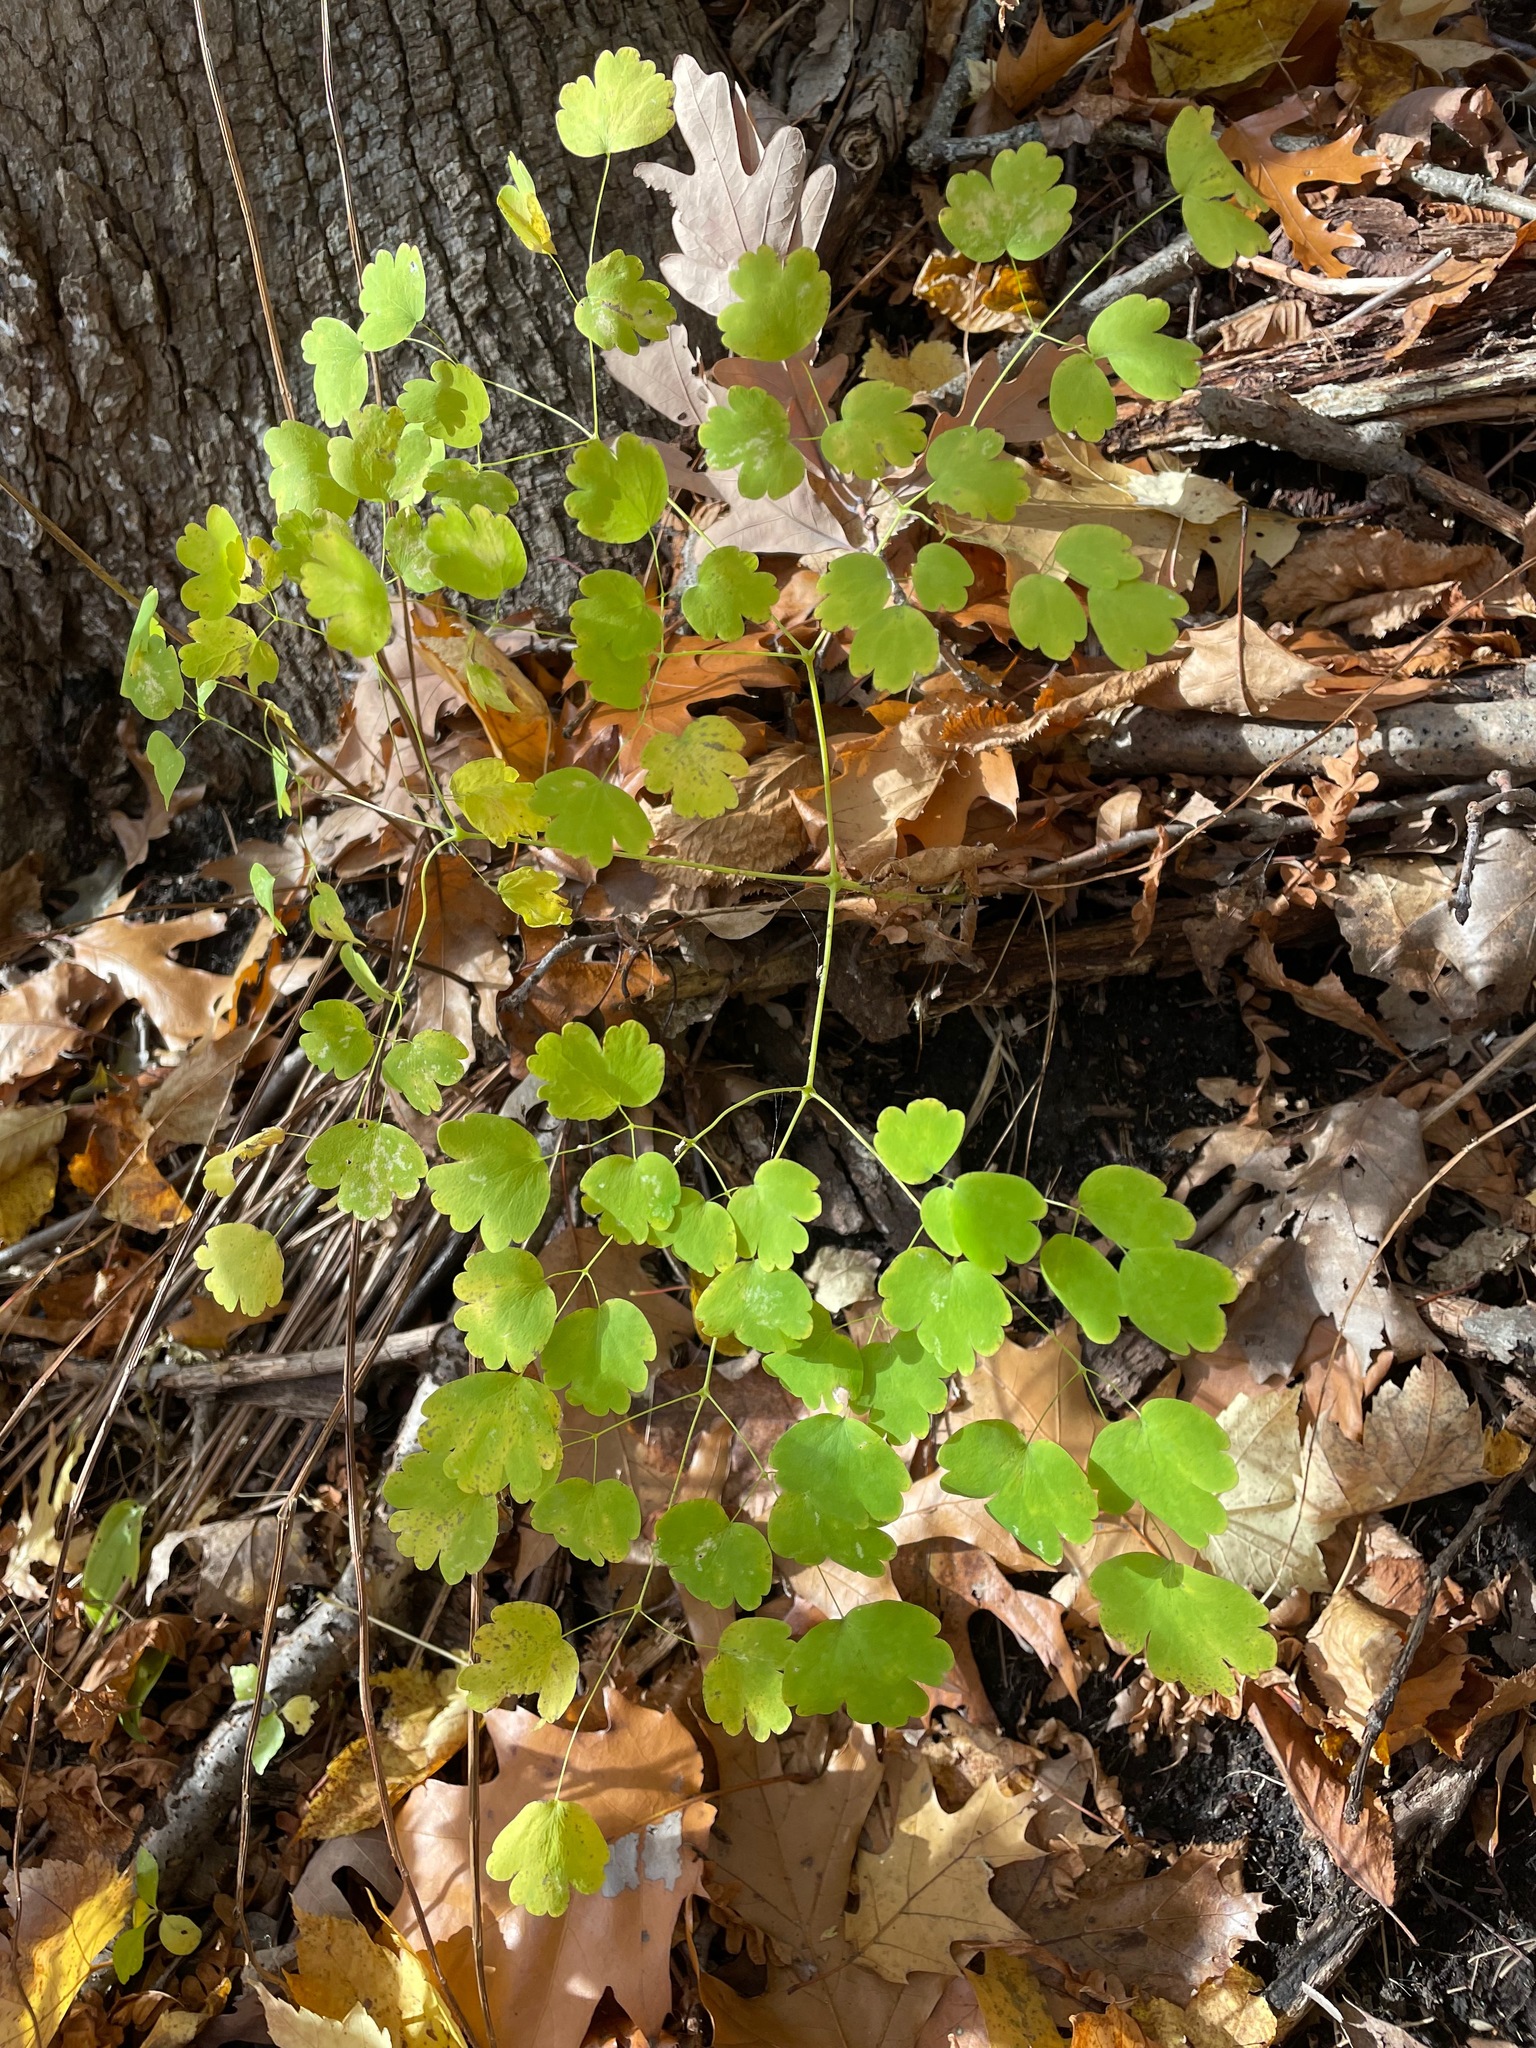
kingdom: Plantae
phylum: Tracheophyta
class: Magnoliopsida
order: Ranunculales
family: Ranunculaceae
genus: Thalictrum
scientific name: Thalictrum dioicum
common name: Early meadow-rue
